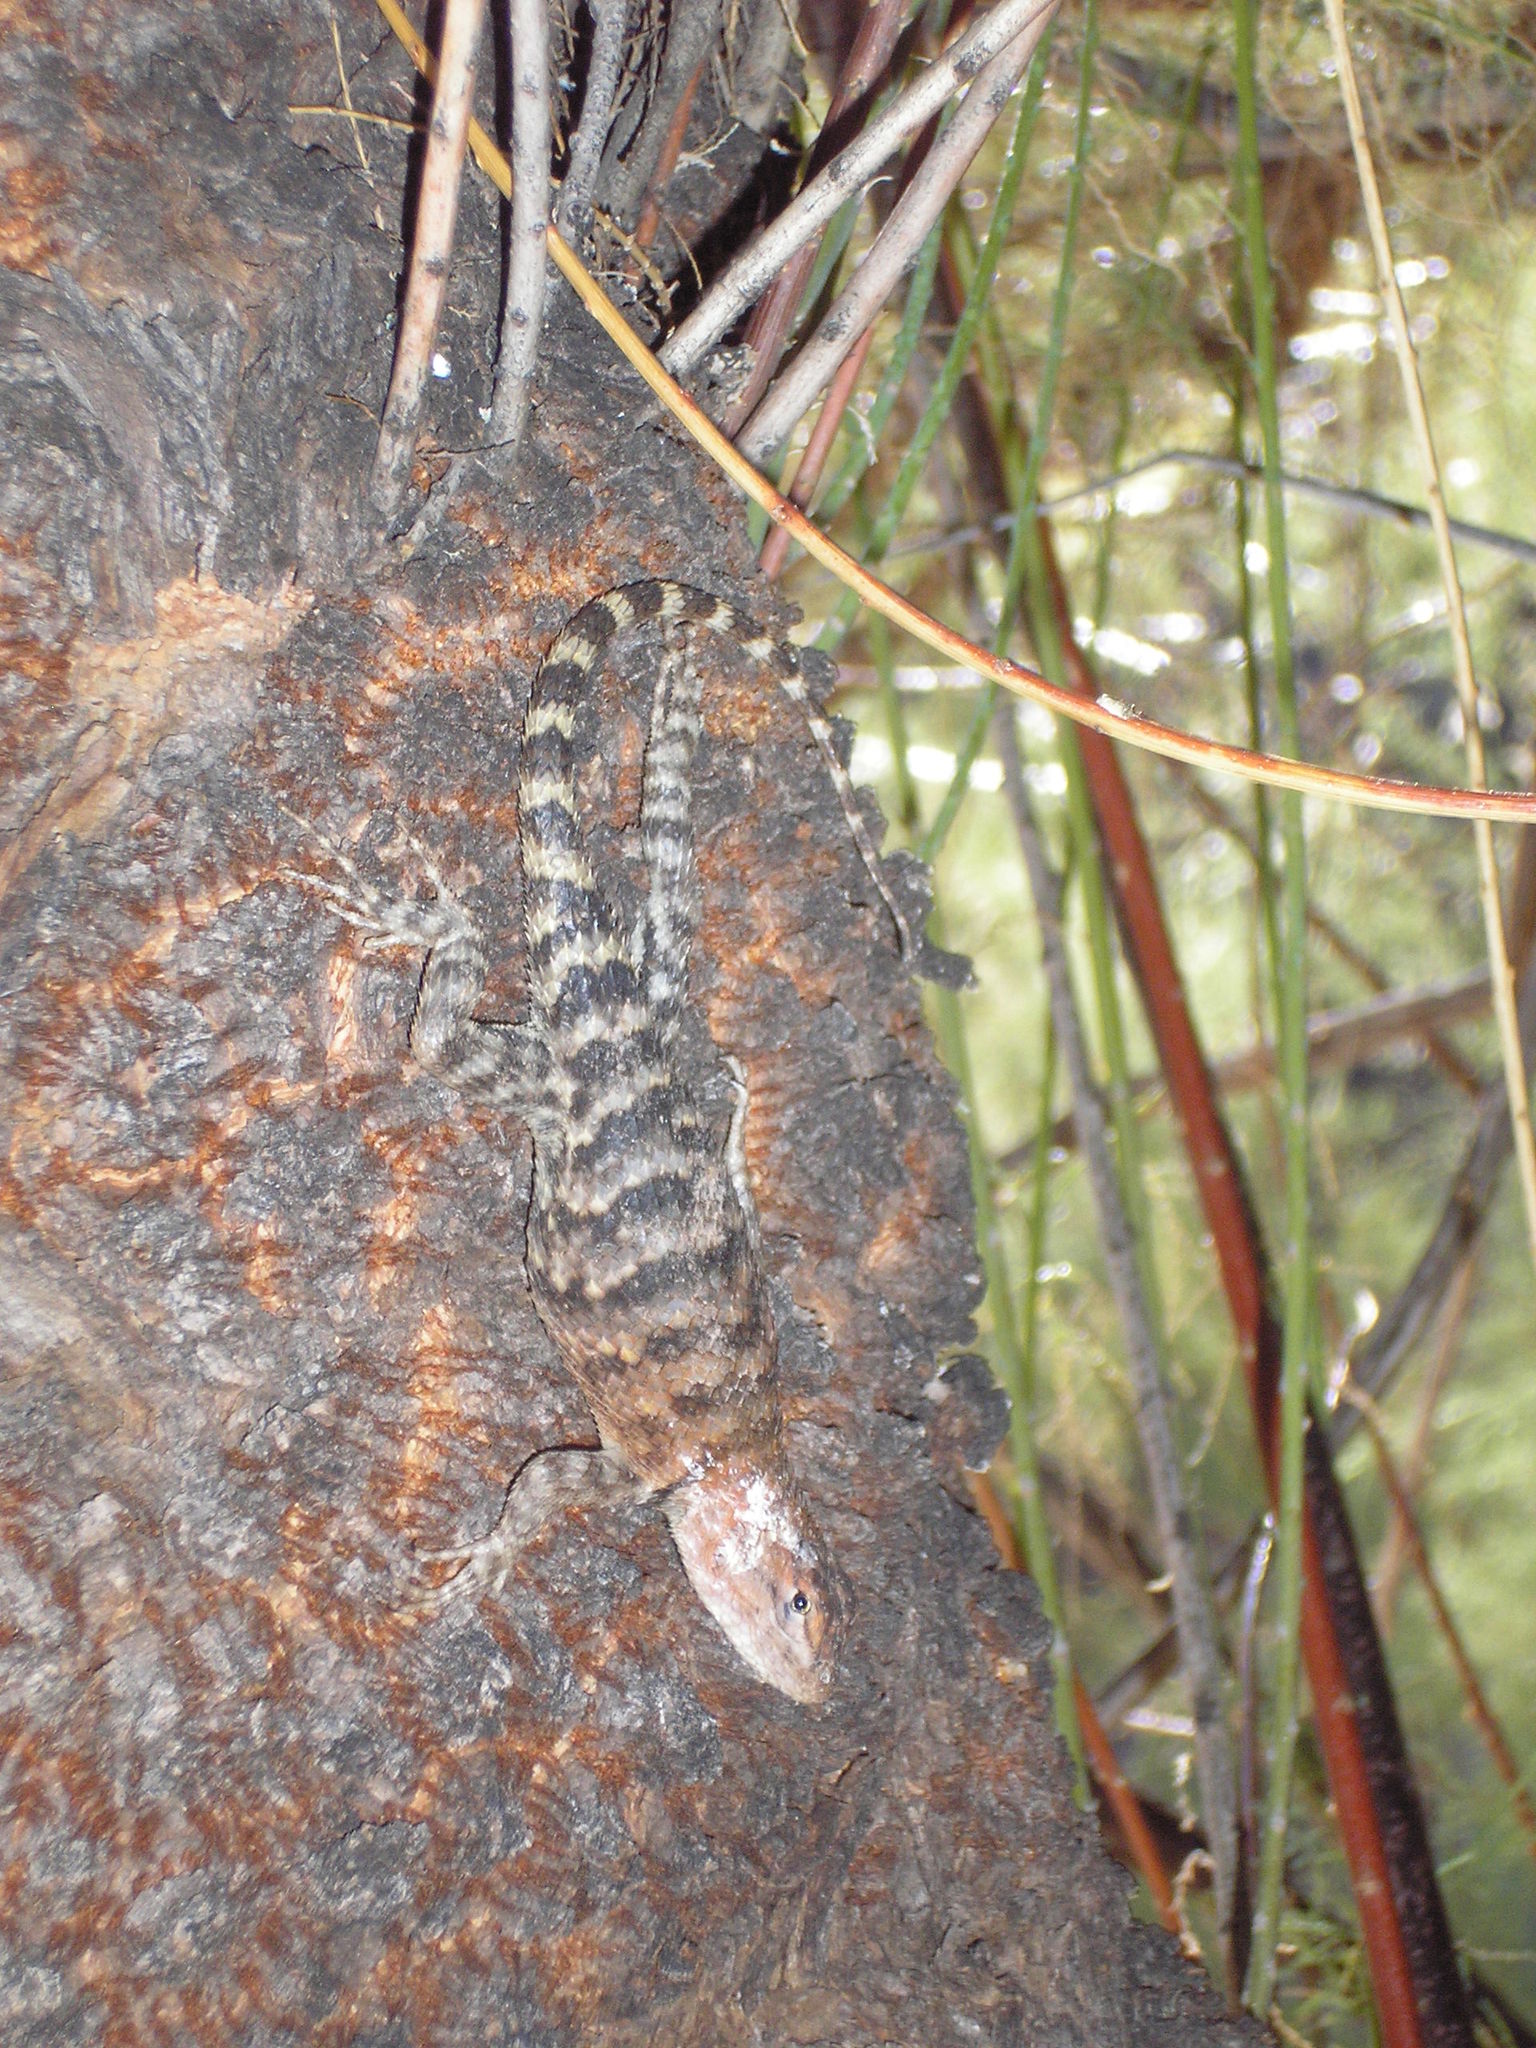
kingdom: Animalia
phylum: Chordata
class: Squamata
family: Phrynosomatidae
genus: Sceloporus
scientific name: Sceloporus magister
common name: Desert spiny lizard
